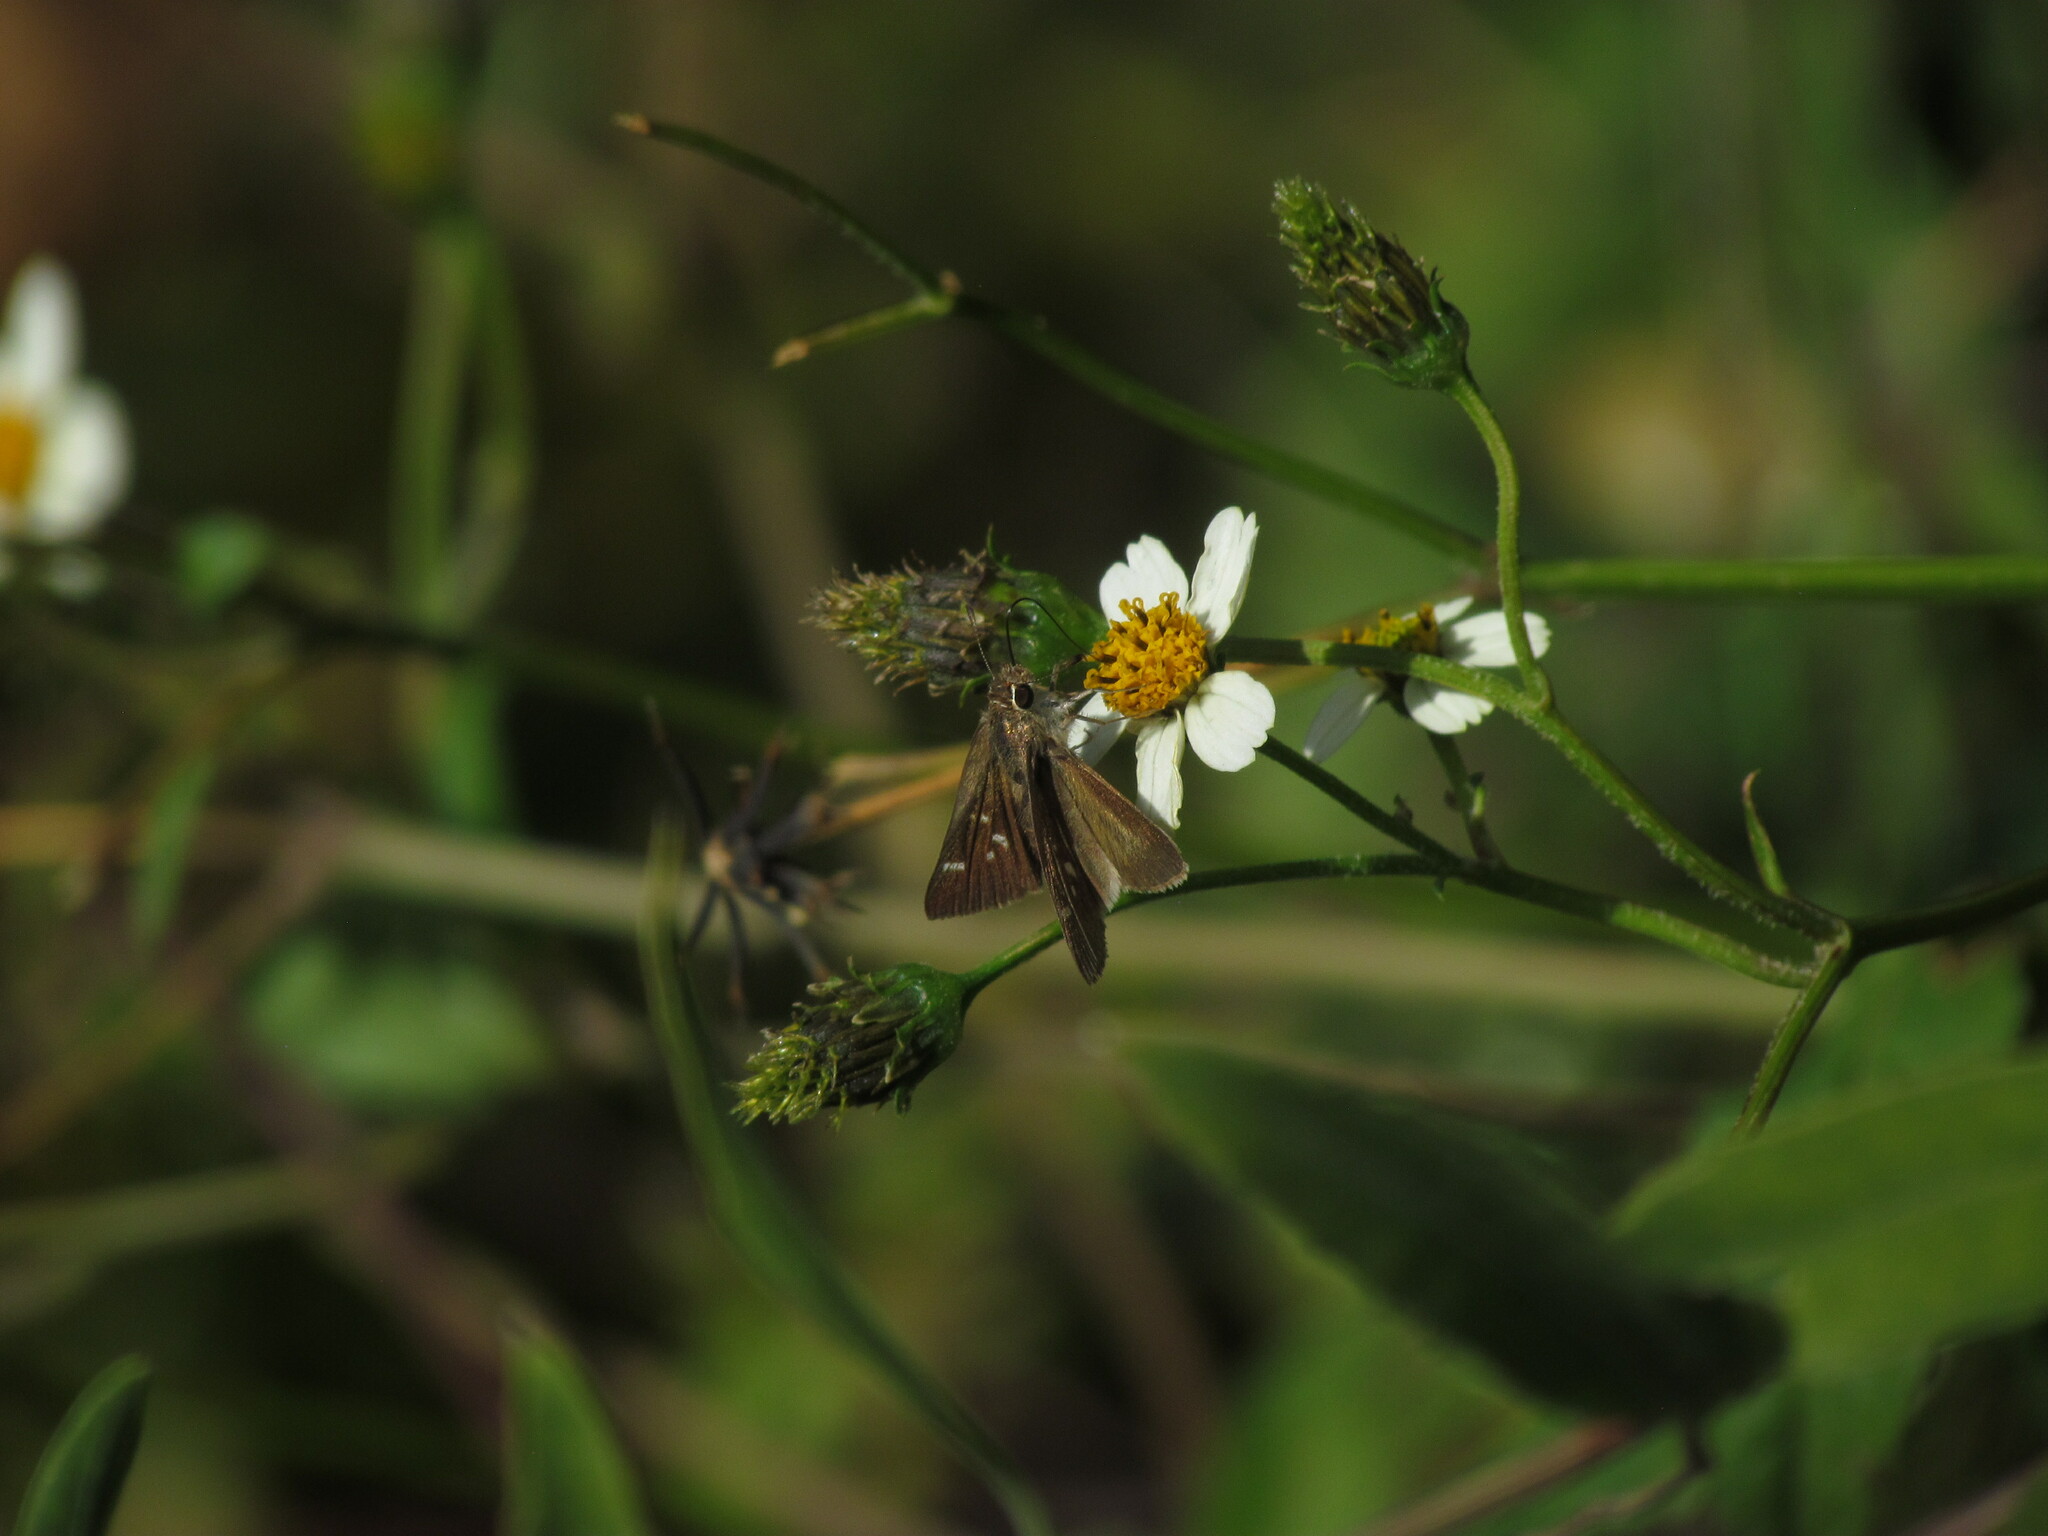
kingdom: Animalia
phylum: Arthropoda
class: Insecta
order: Lepidoptera
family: Hesperiidae
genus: Lerodea
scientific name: Lerodea eufala
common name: Eufala skipper
